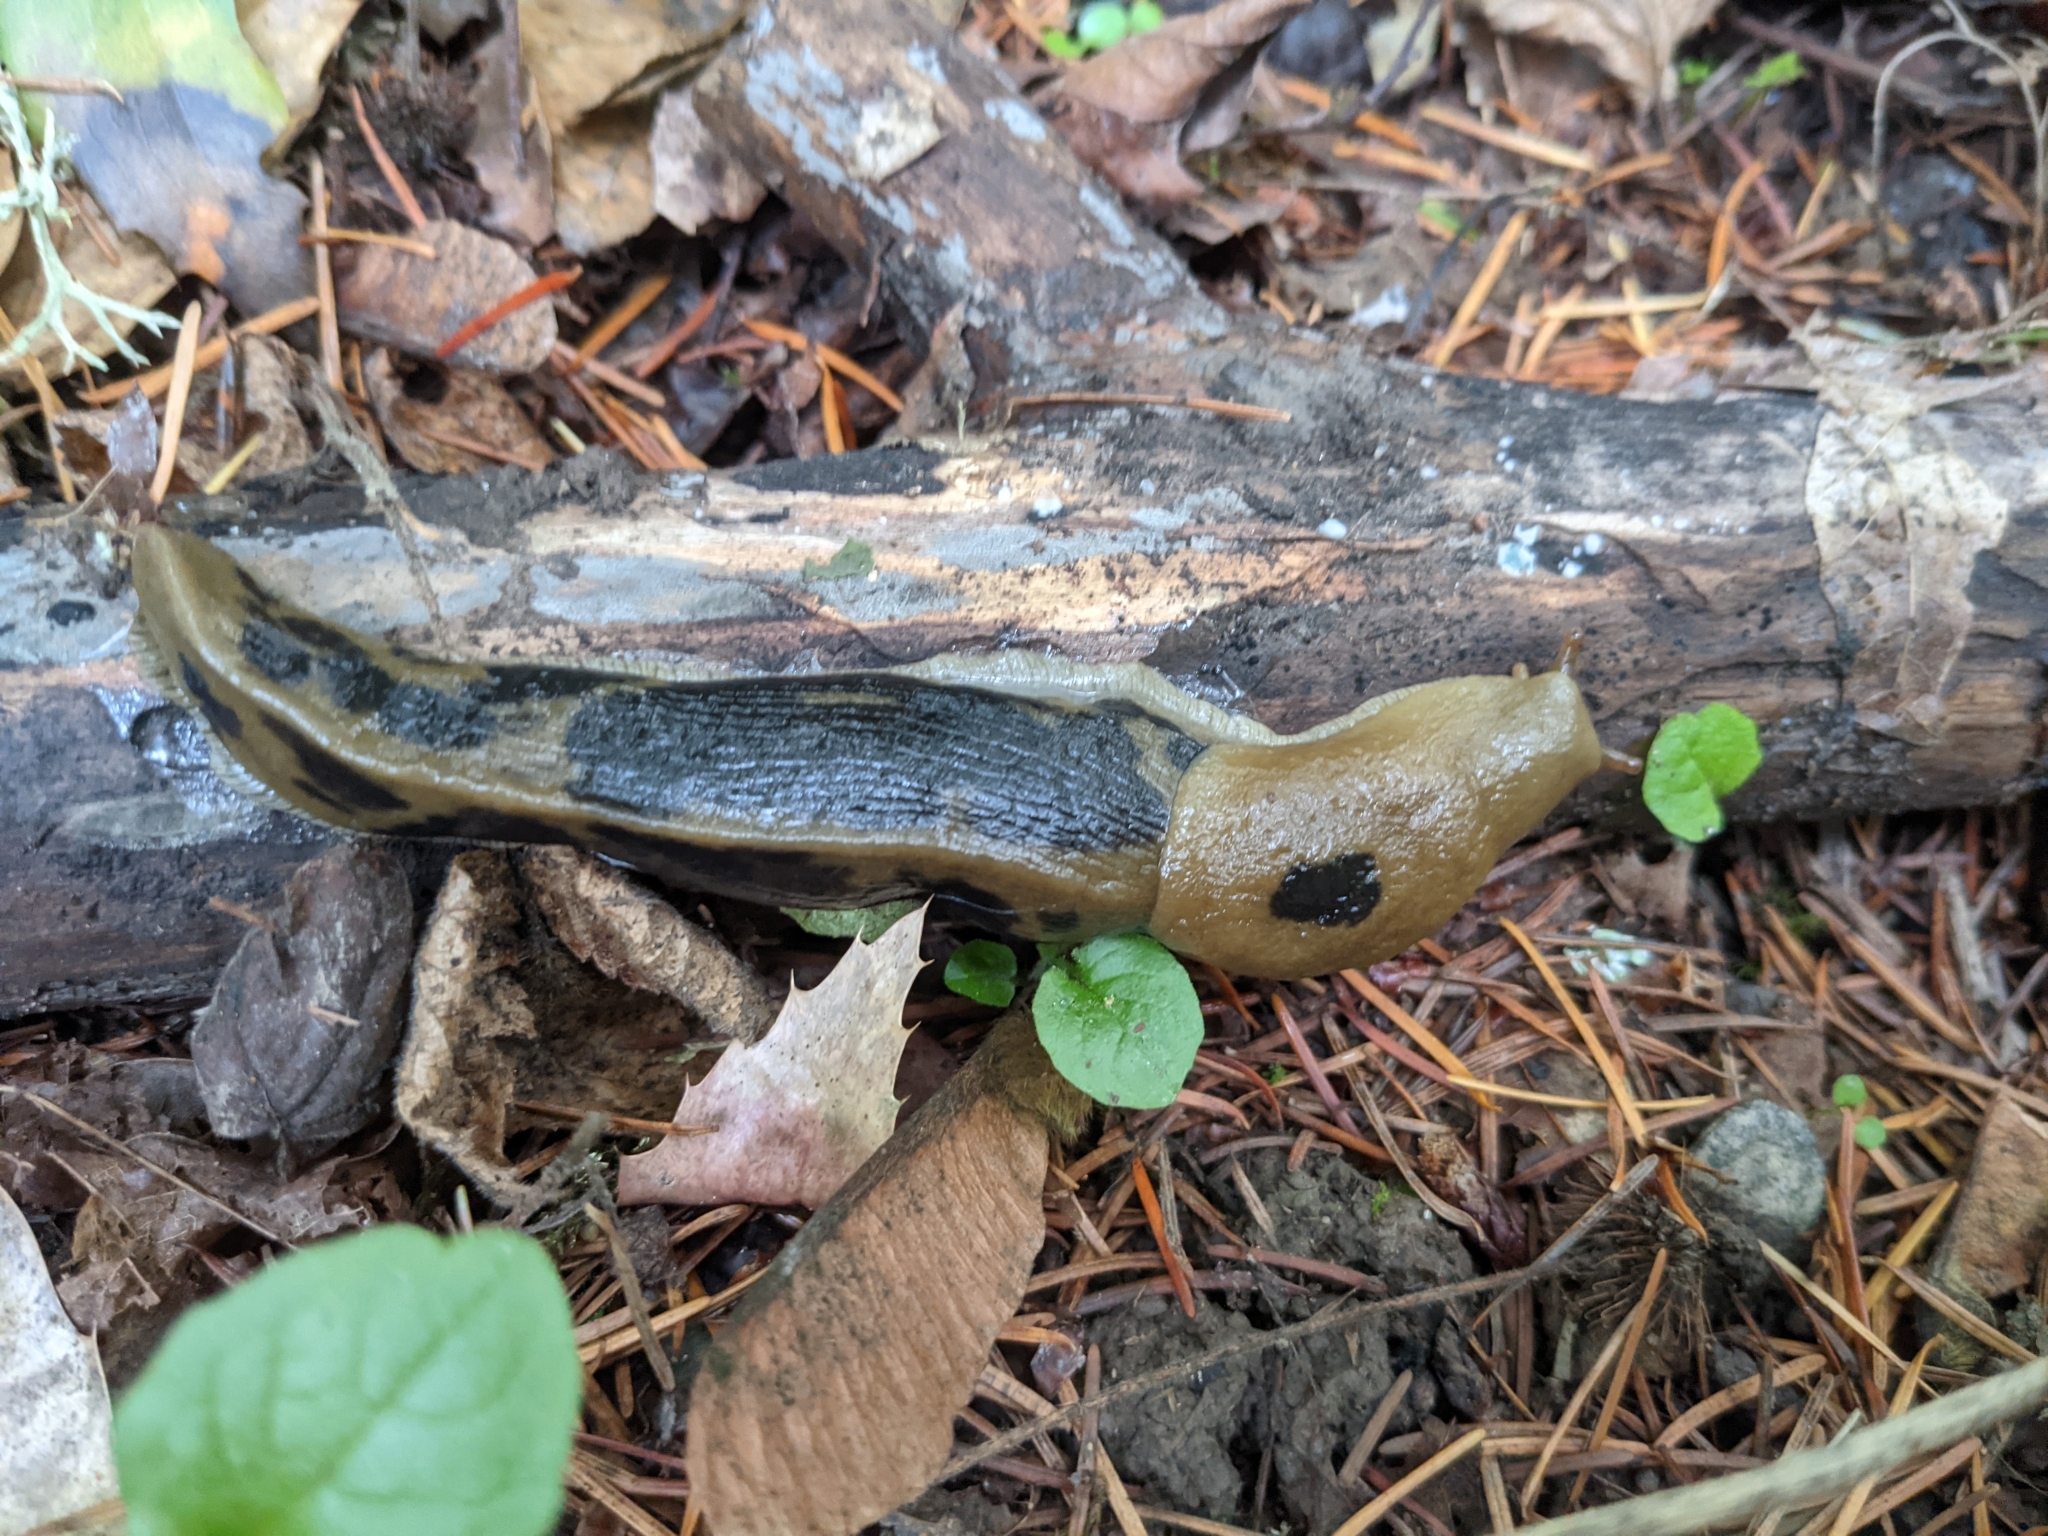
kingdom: Animalia
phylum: Mollusca
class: Gastropoda
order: Stylommatophora
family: Ariolimacidae
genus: Ariolimax
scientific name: Ariolimax columbianus
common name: Pacific banana slug
